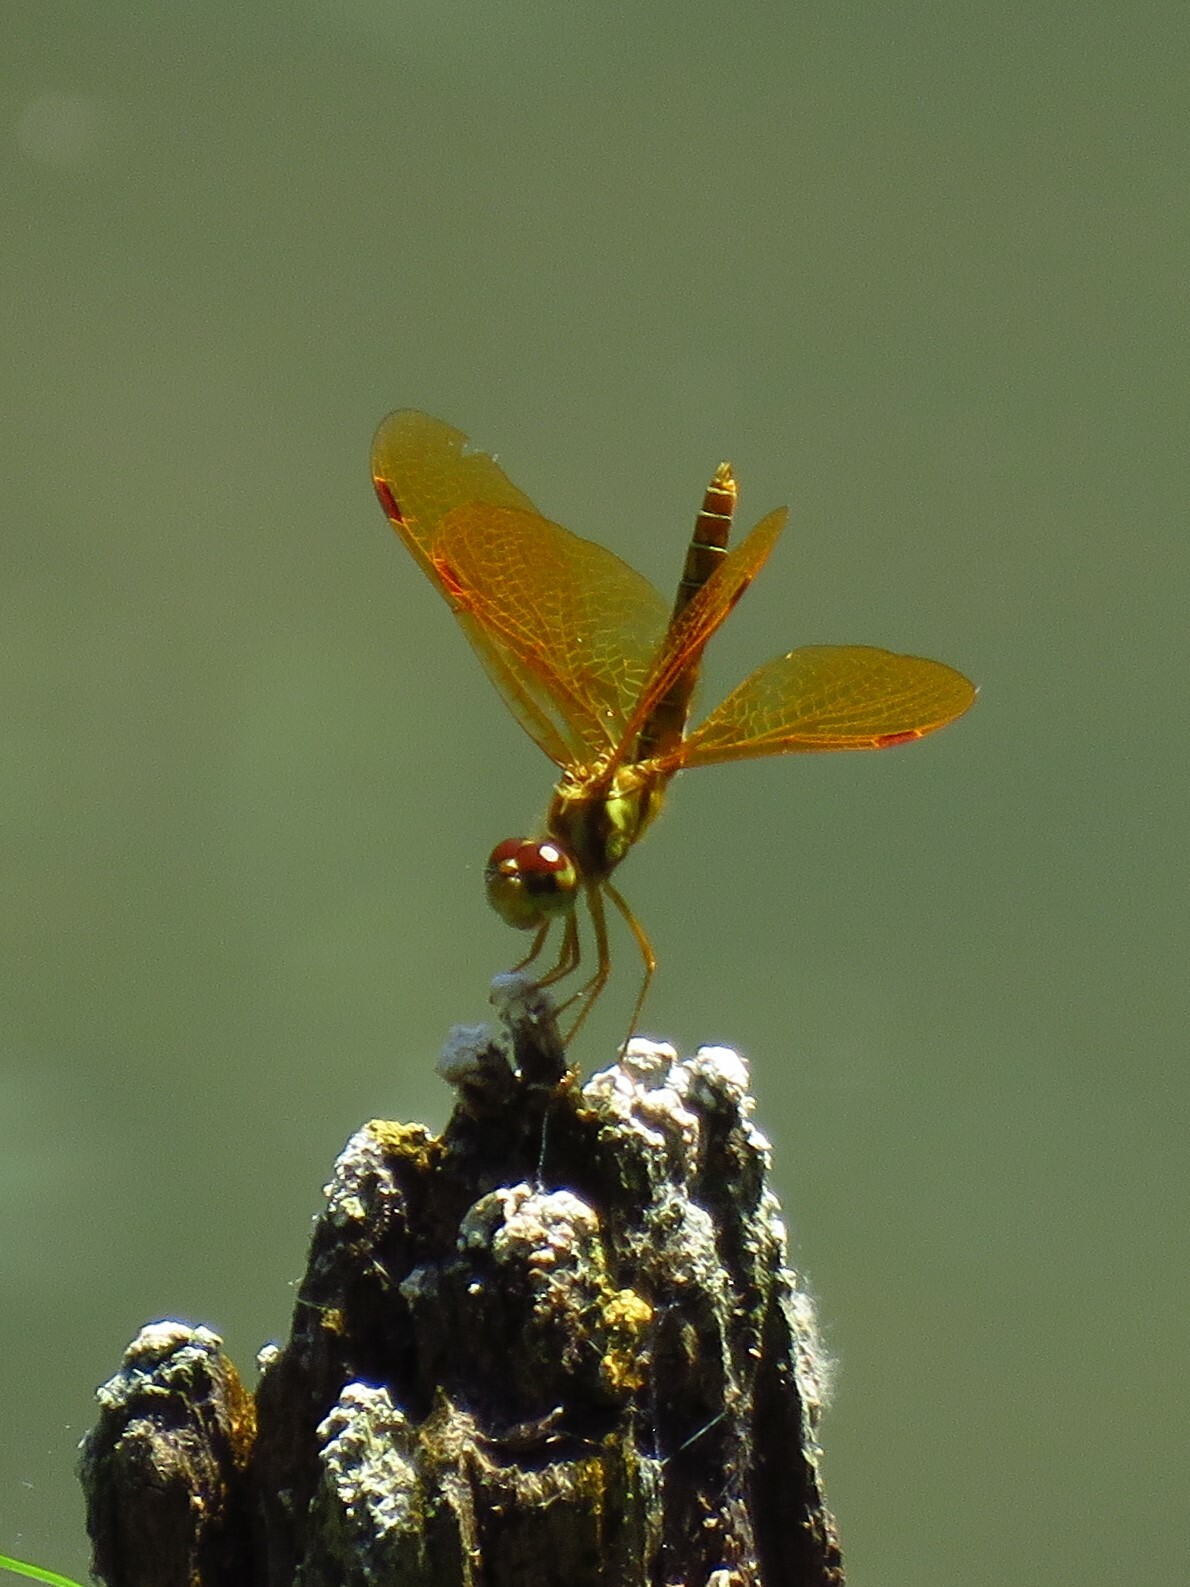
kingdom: Animalia
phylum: Arthropoda
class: Insecta
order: Odonata
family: Libellulidae
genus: Perithemis
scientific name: Perithemis tenera
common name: Eastern amberwing
